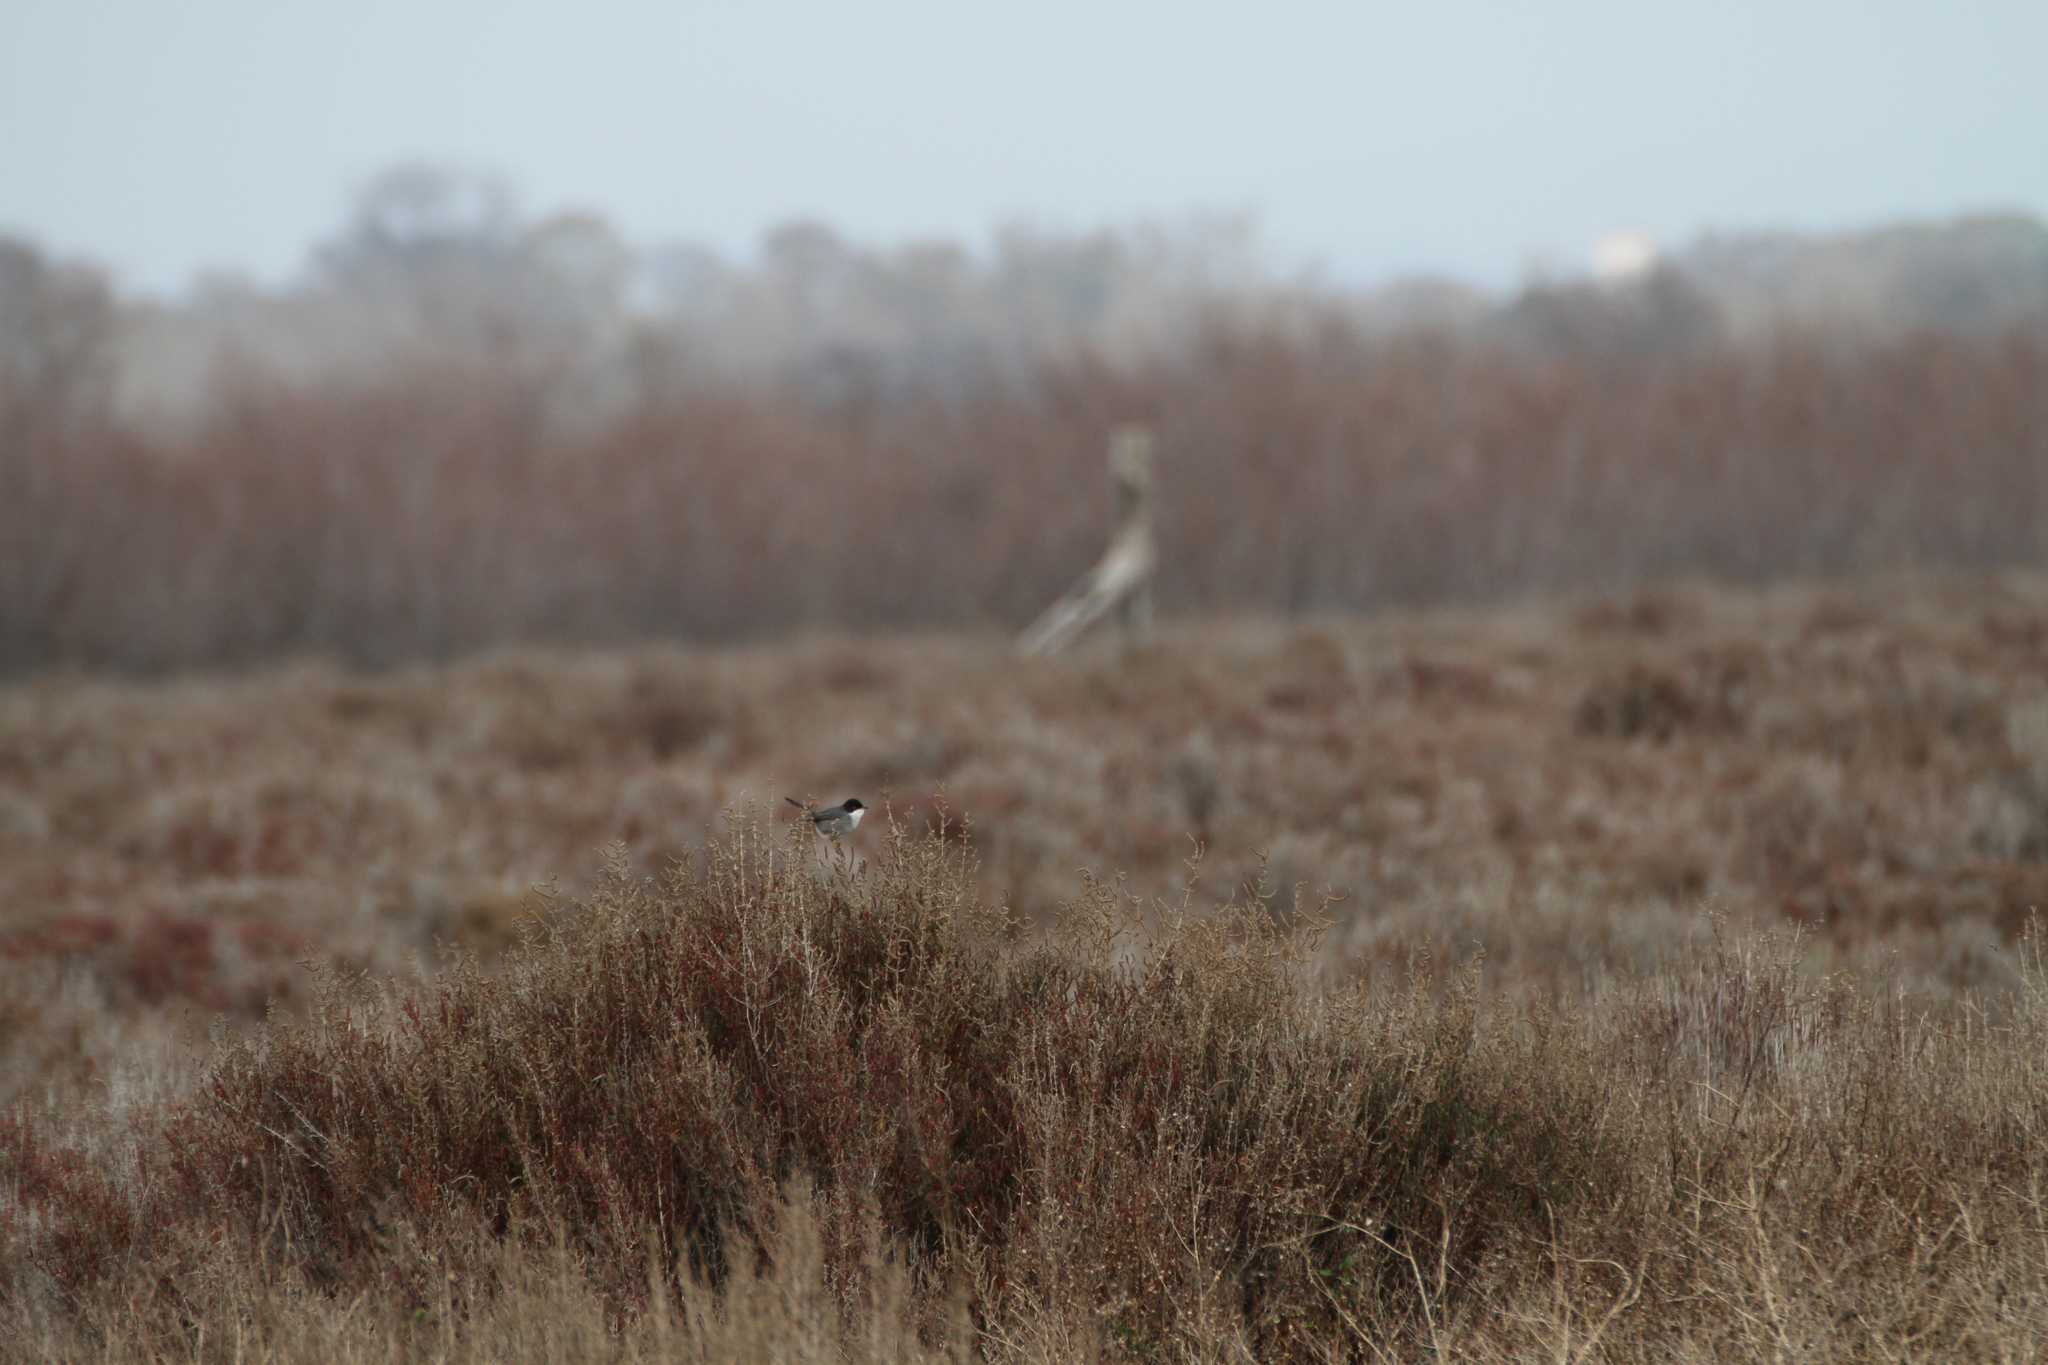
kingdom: Animalia
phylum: Chordata
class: Aves
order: Passeriformes
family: Sylviidae
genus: Curruca
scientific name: Curruca melanocephala
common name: Sardinian warbler
